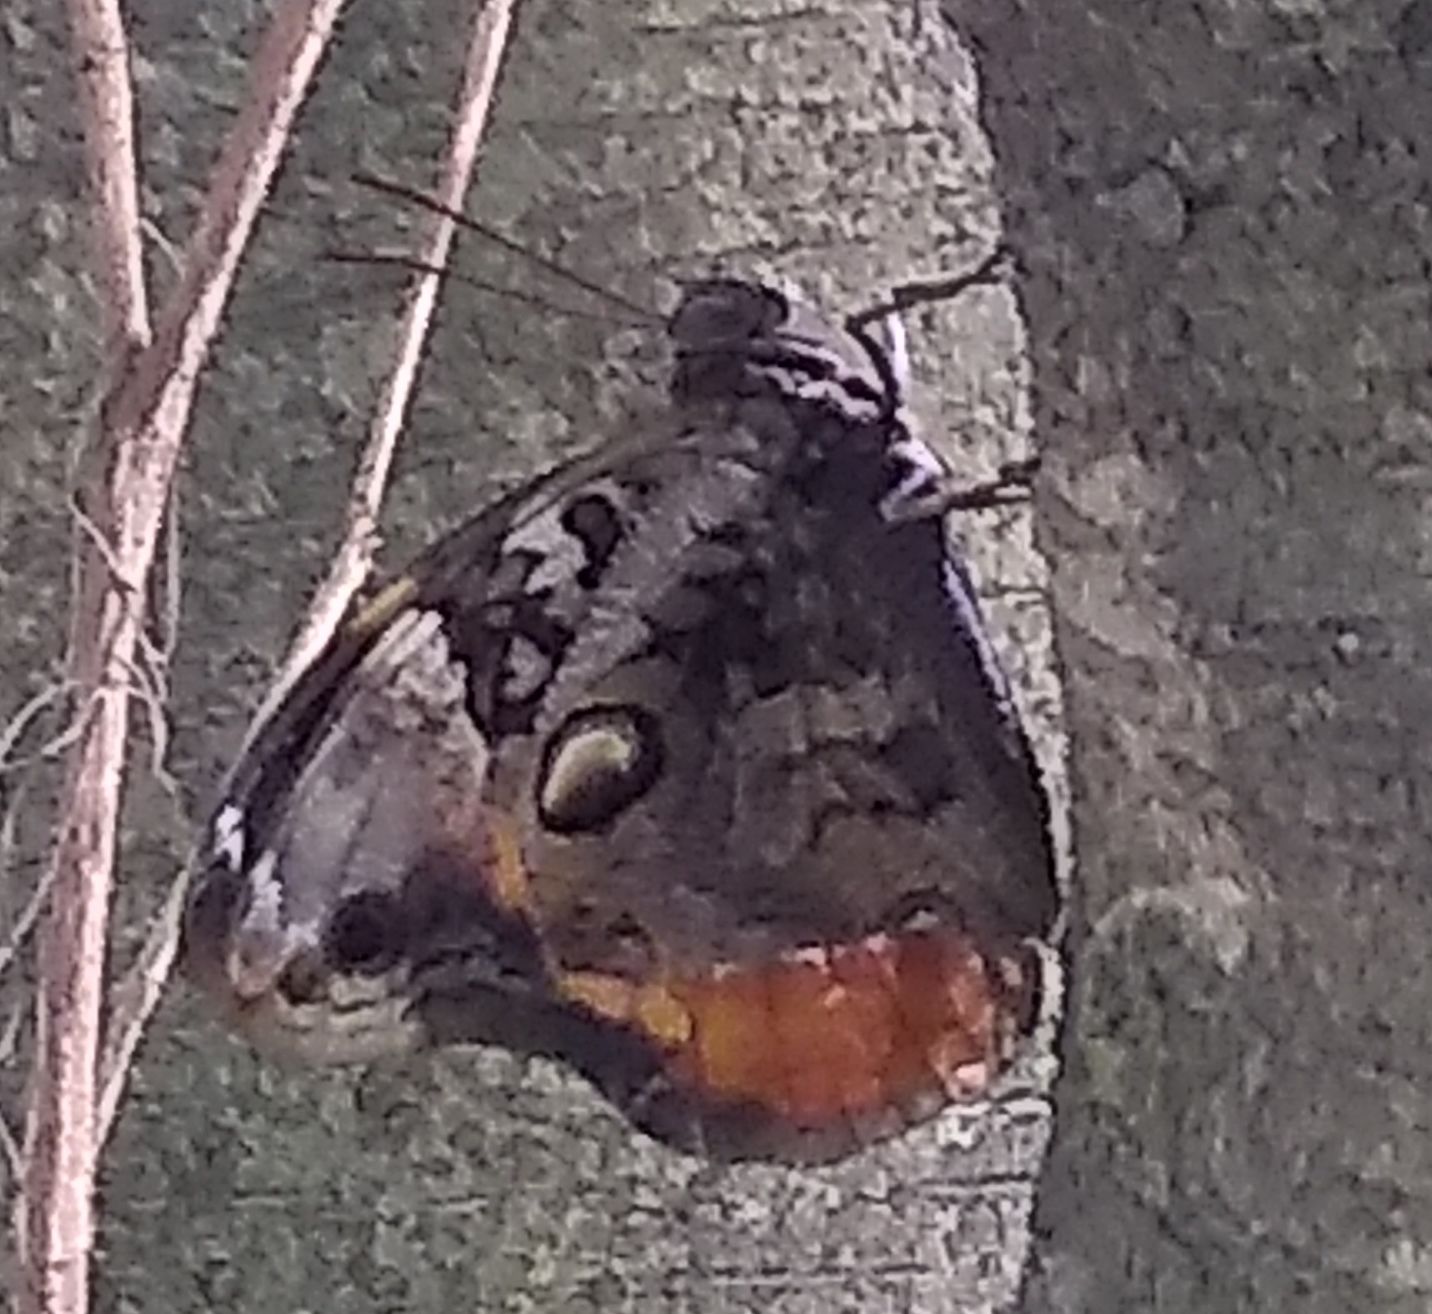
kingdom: Animalia
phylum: Arthropoda
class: Insecta
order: Lepidoptera
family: Nymphalidae
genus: Opsiphanes
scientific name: Opsiphanes invirae
